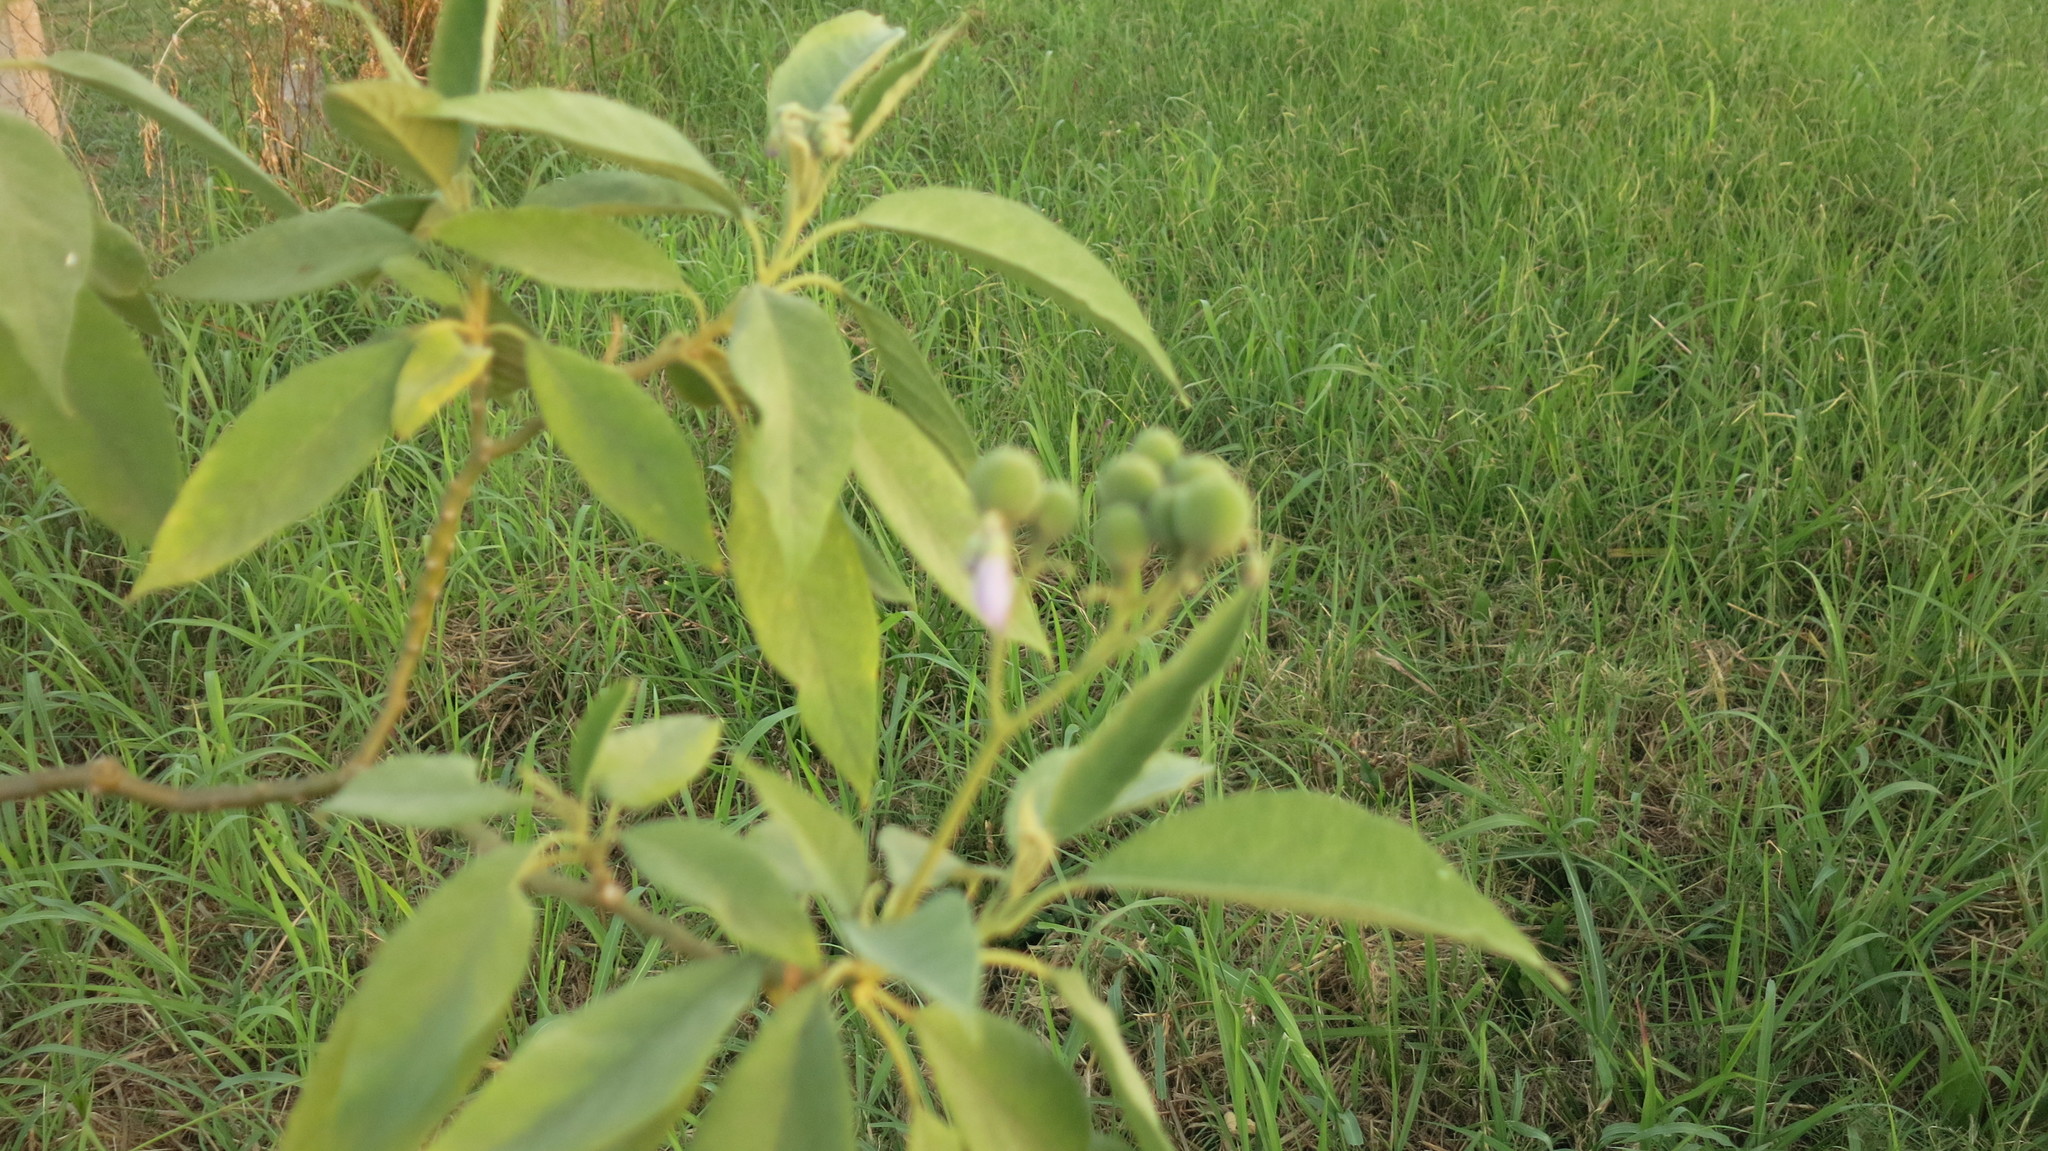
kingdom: Plantae
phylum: Tracheophyta
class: Magnoliopsida
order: Solanales
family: Solanaceae
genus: Solanum
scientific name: Solanum granulosoleprosum
